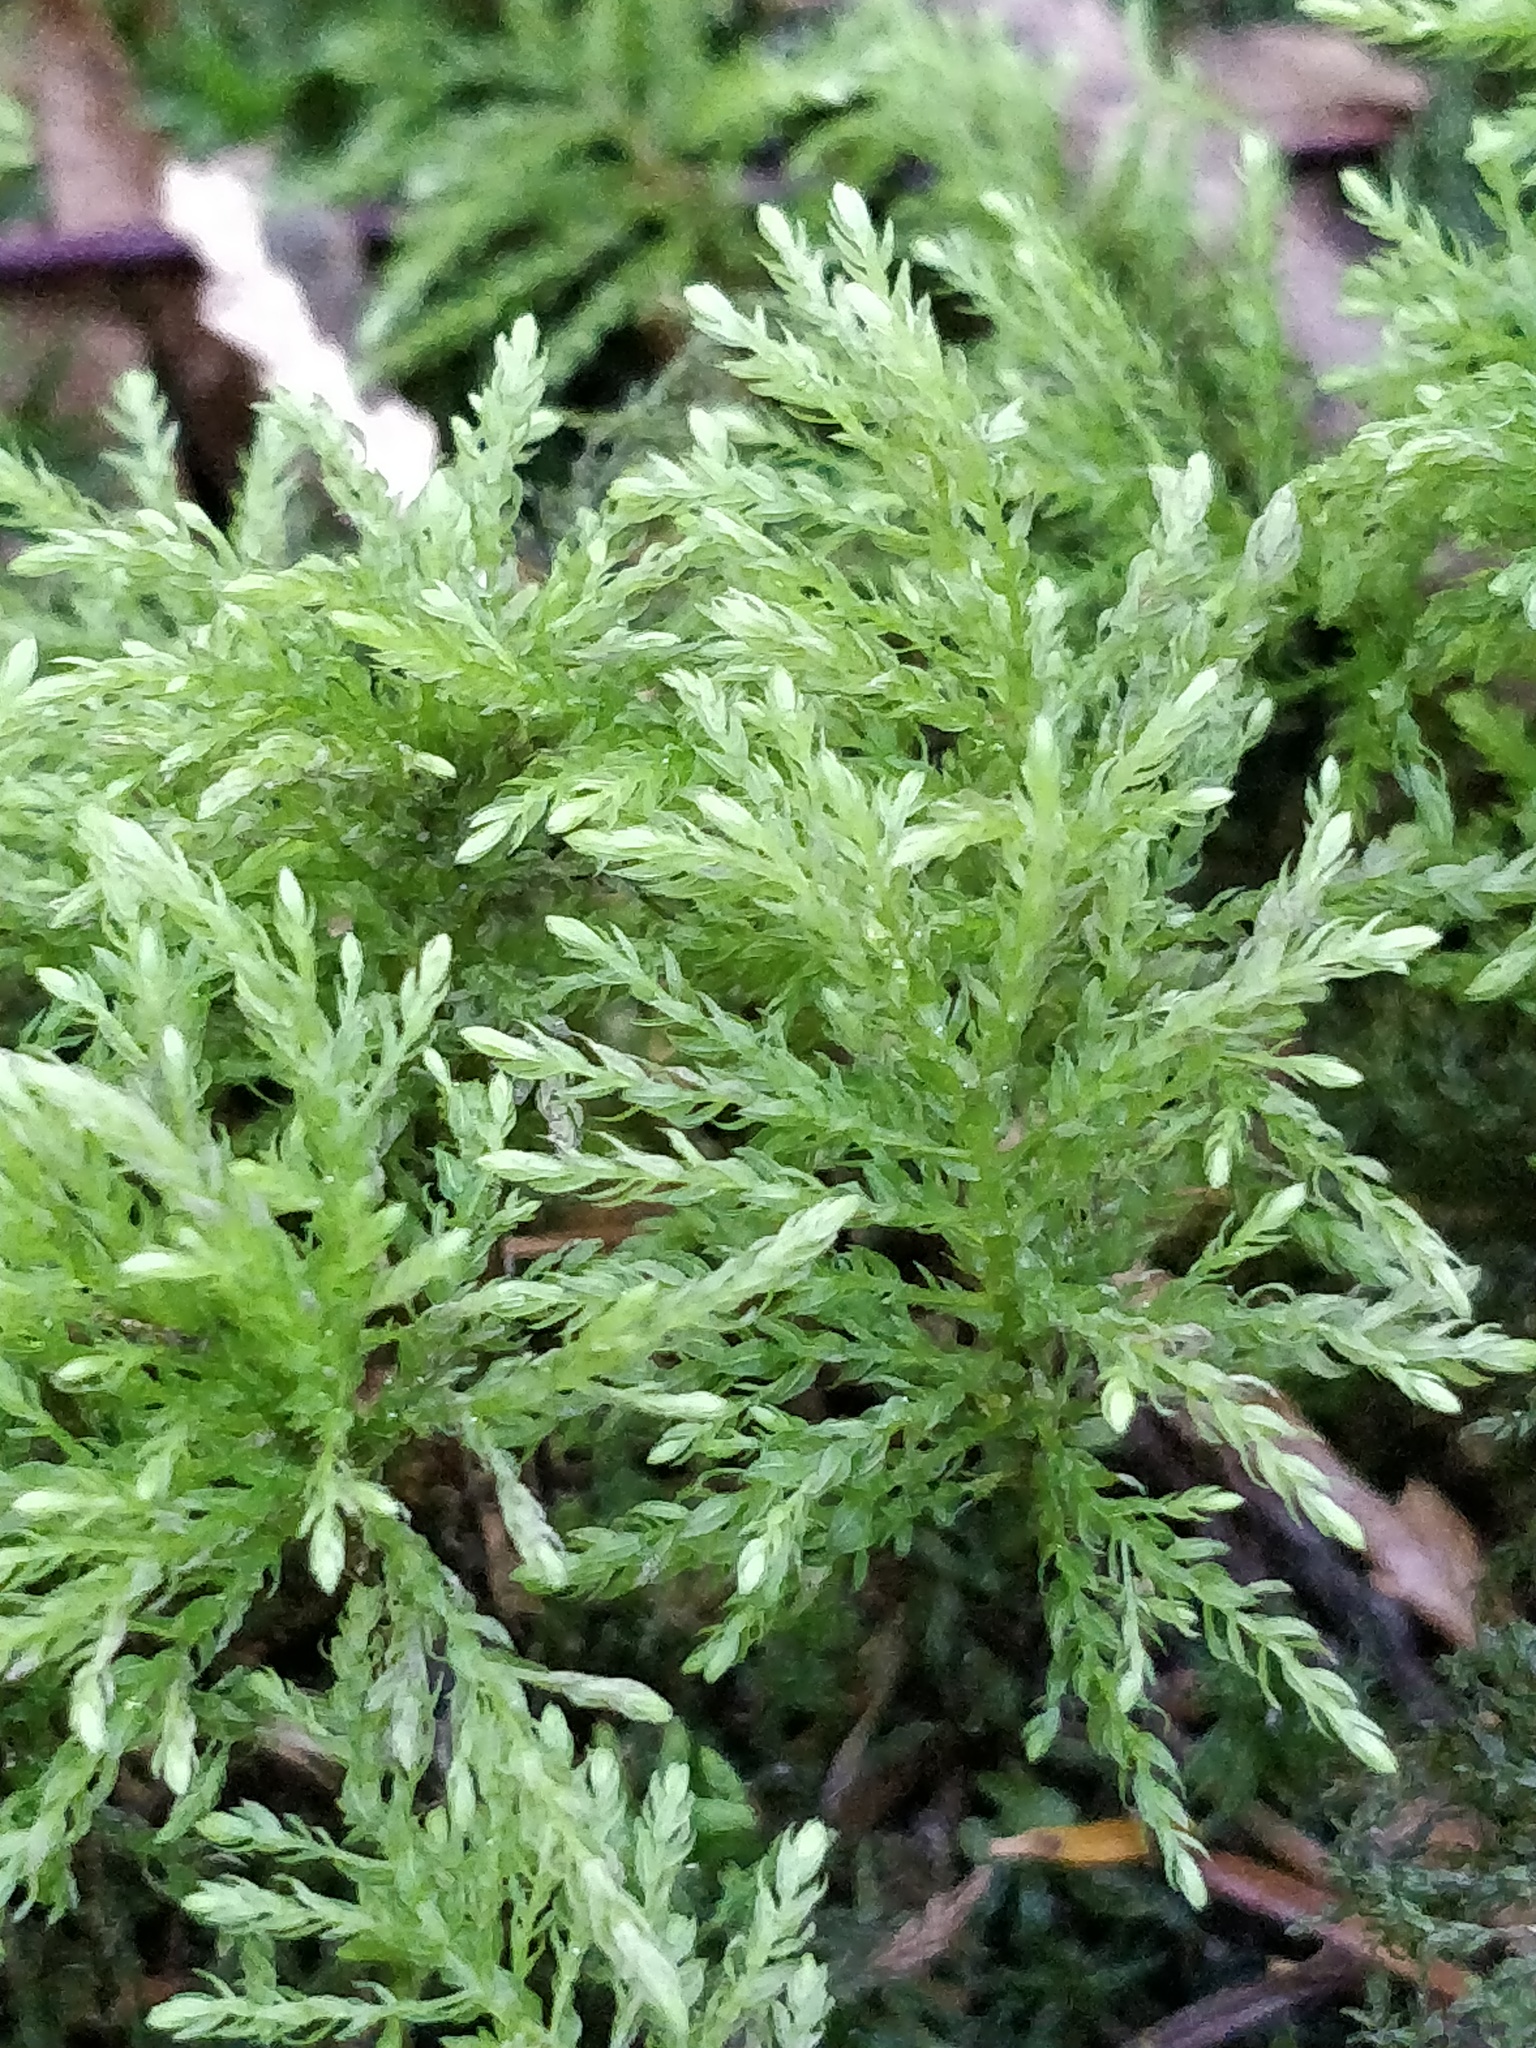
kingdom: Plantae
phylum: Bryophyta
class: Bryopsida
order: Bryales
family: Mniaceae
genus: Leucolepis
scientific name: Leucolepis acanthoneura
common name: Leucolepis umbrella moss
